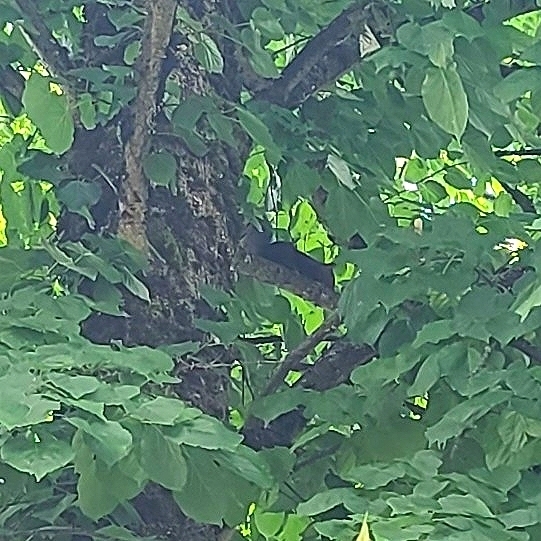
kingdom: Animalia
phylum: Chordata
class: Mammalia
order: Rodentia
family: Sciuridae
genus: Sciurus
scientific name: Sciurus carolinensis
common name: Eastern gray squirrel
